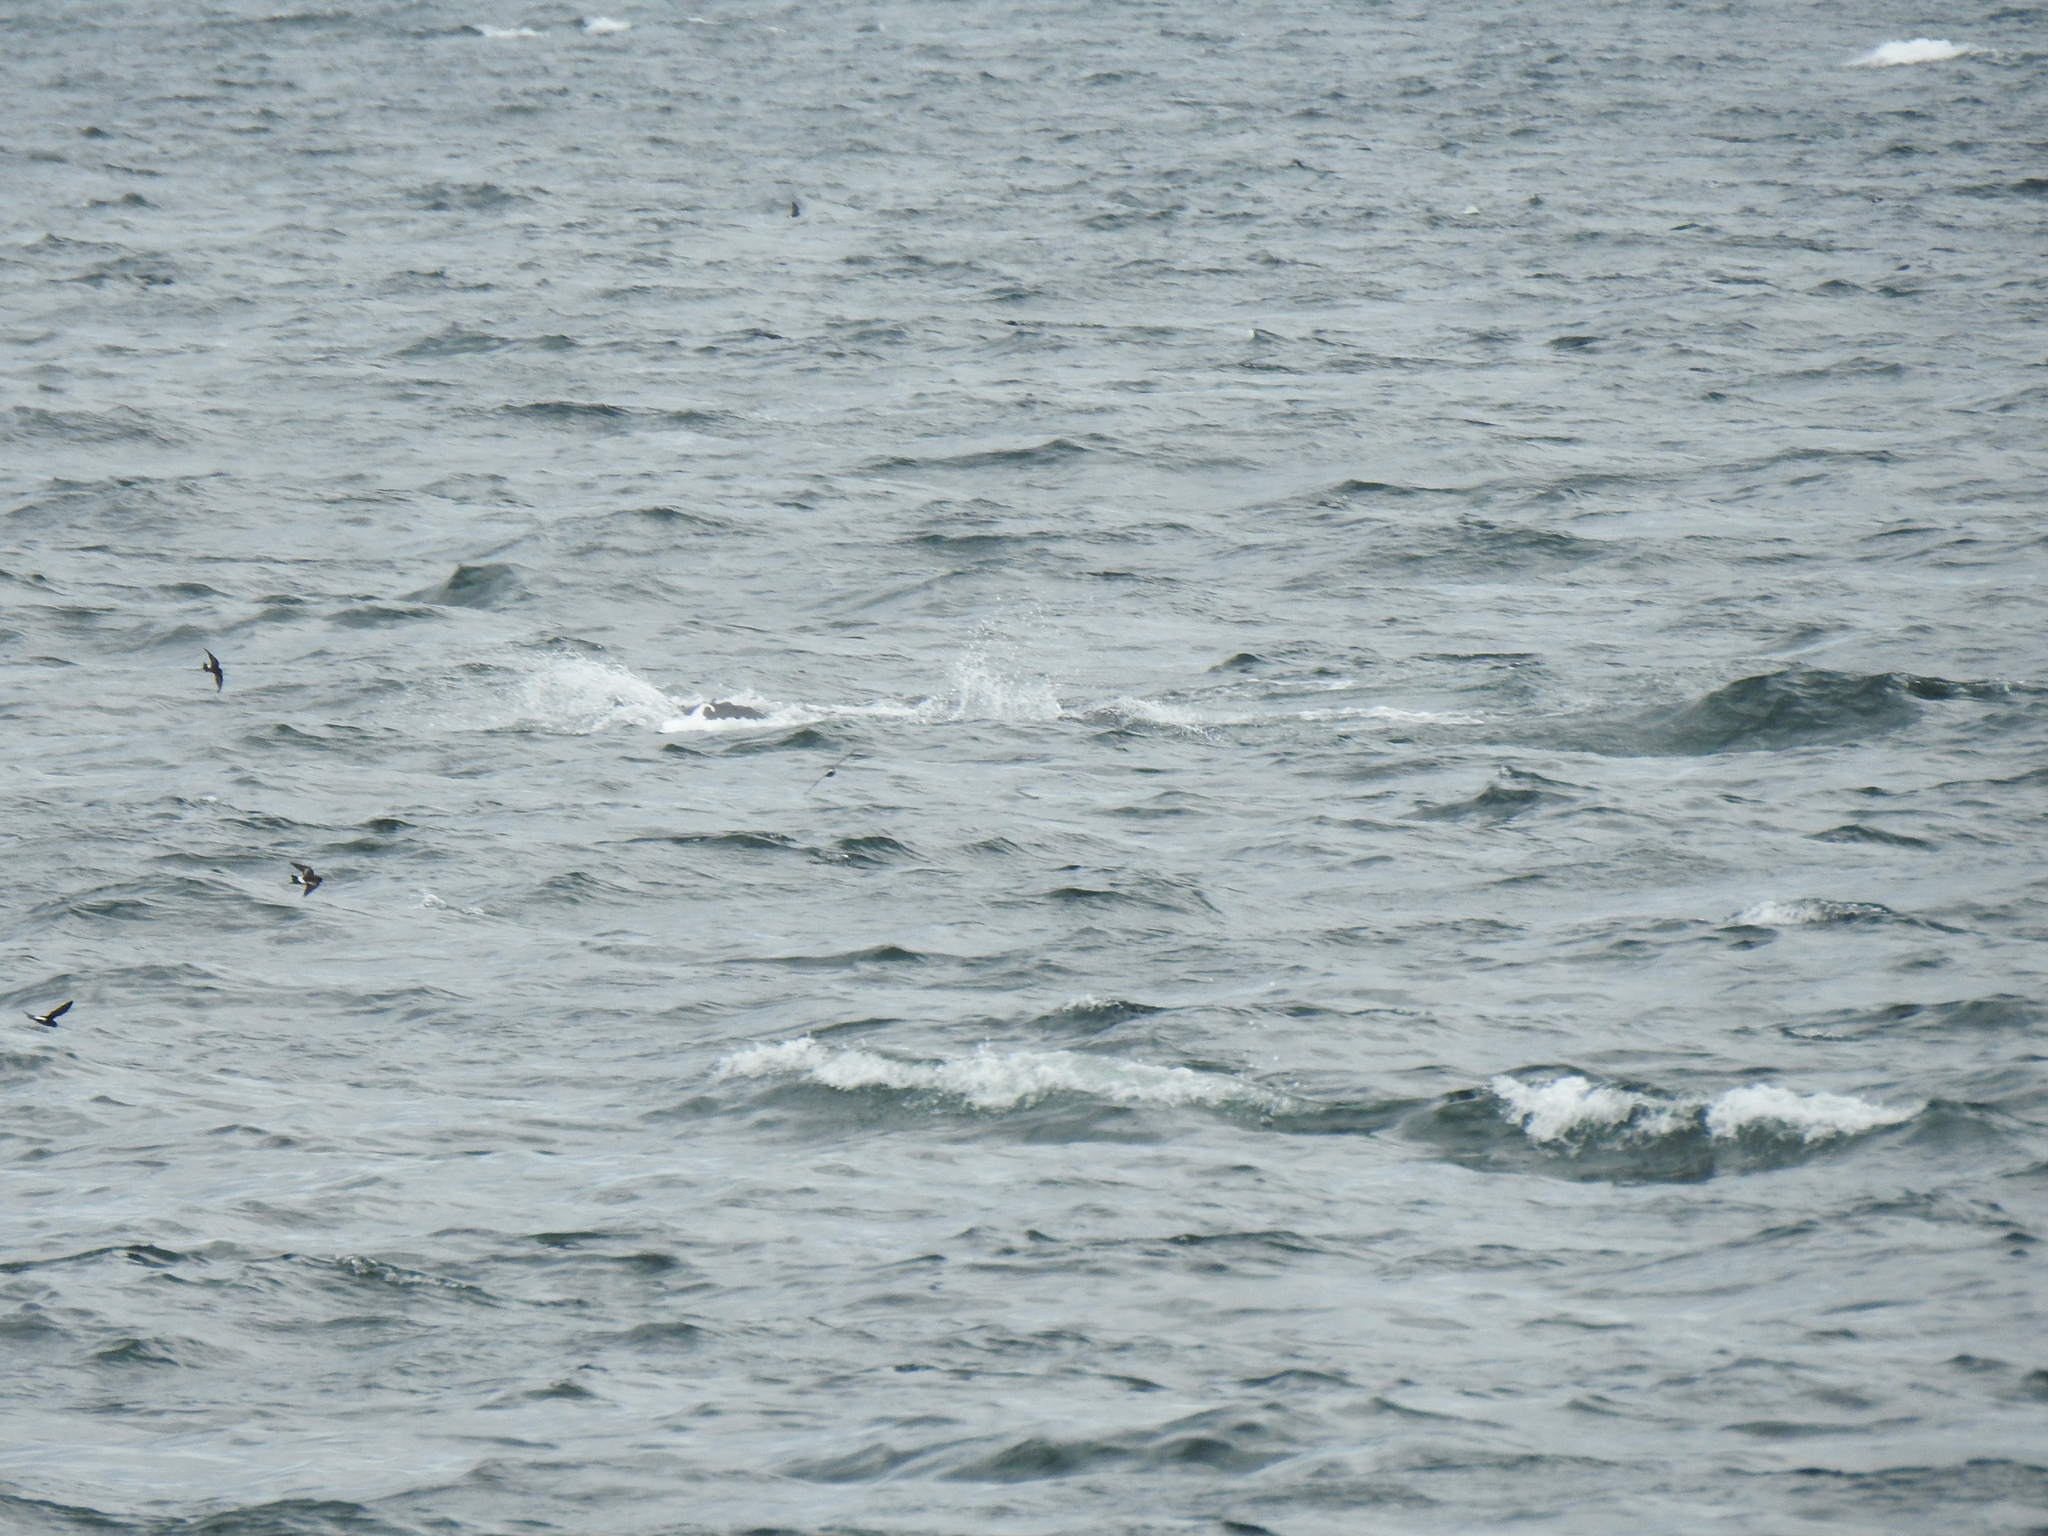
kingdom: Animalia
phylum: Chordata
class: Aves
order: Procellariiformes
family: Hydrobatidae
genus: Oceanites
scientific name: Oceanites oceanicus
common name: Wilson's storm petrel
